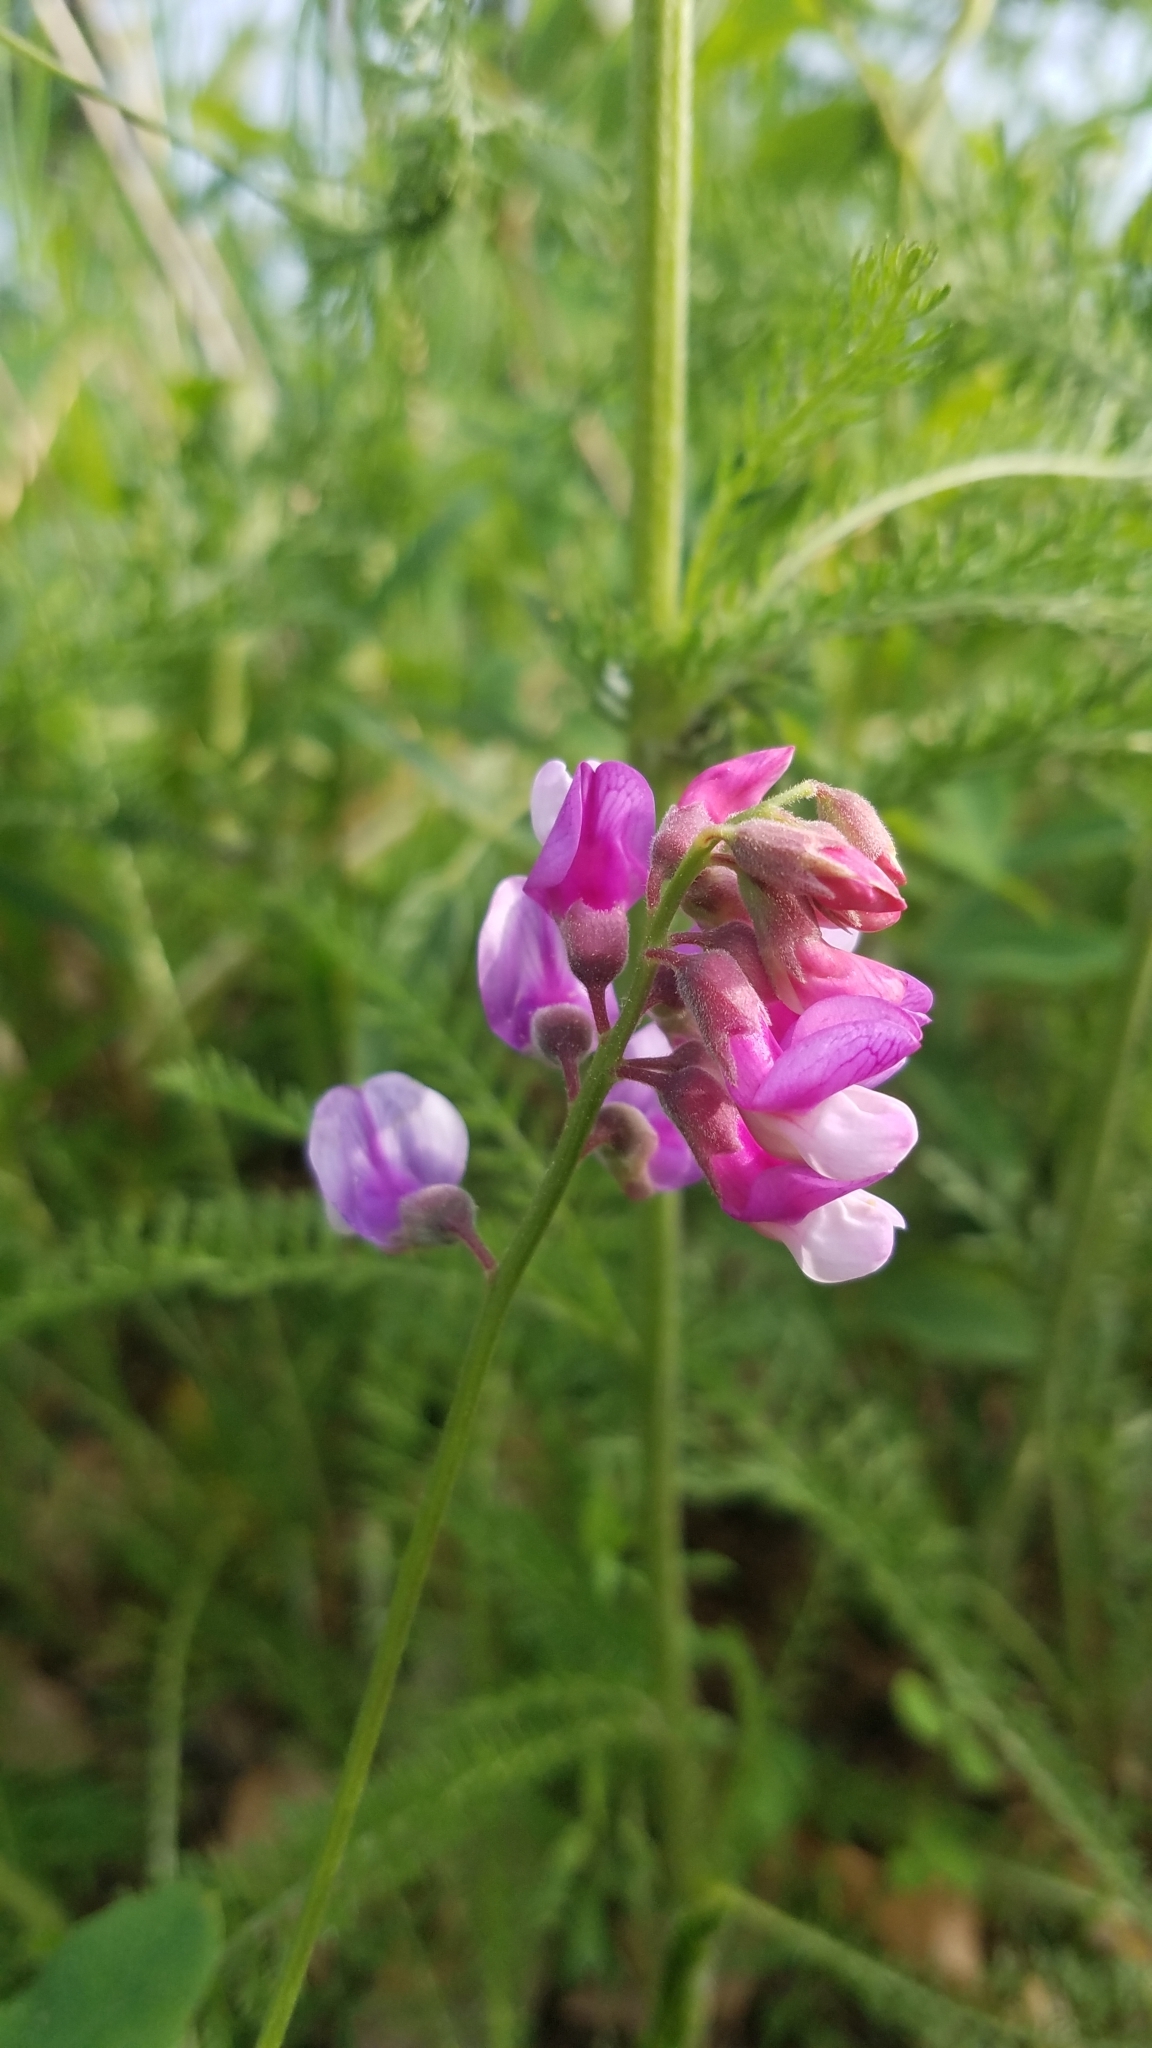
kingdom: Plantae
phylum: Tracheophyta
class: Magnoliopsida
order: Fabales
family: Fabaceae
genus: Lathyrus
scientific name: Lathyrus venosus
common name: Forest-pea
